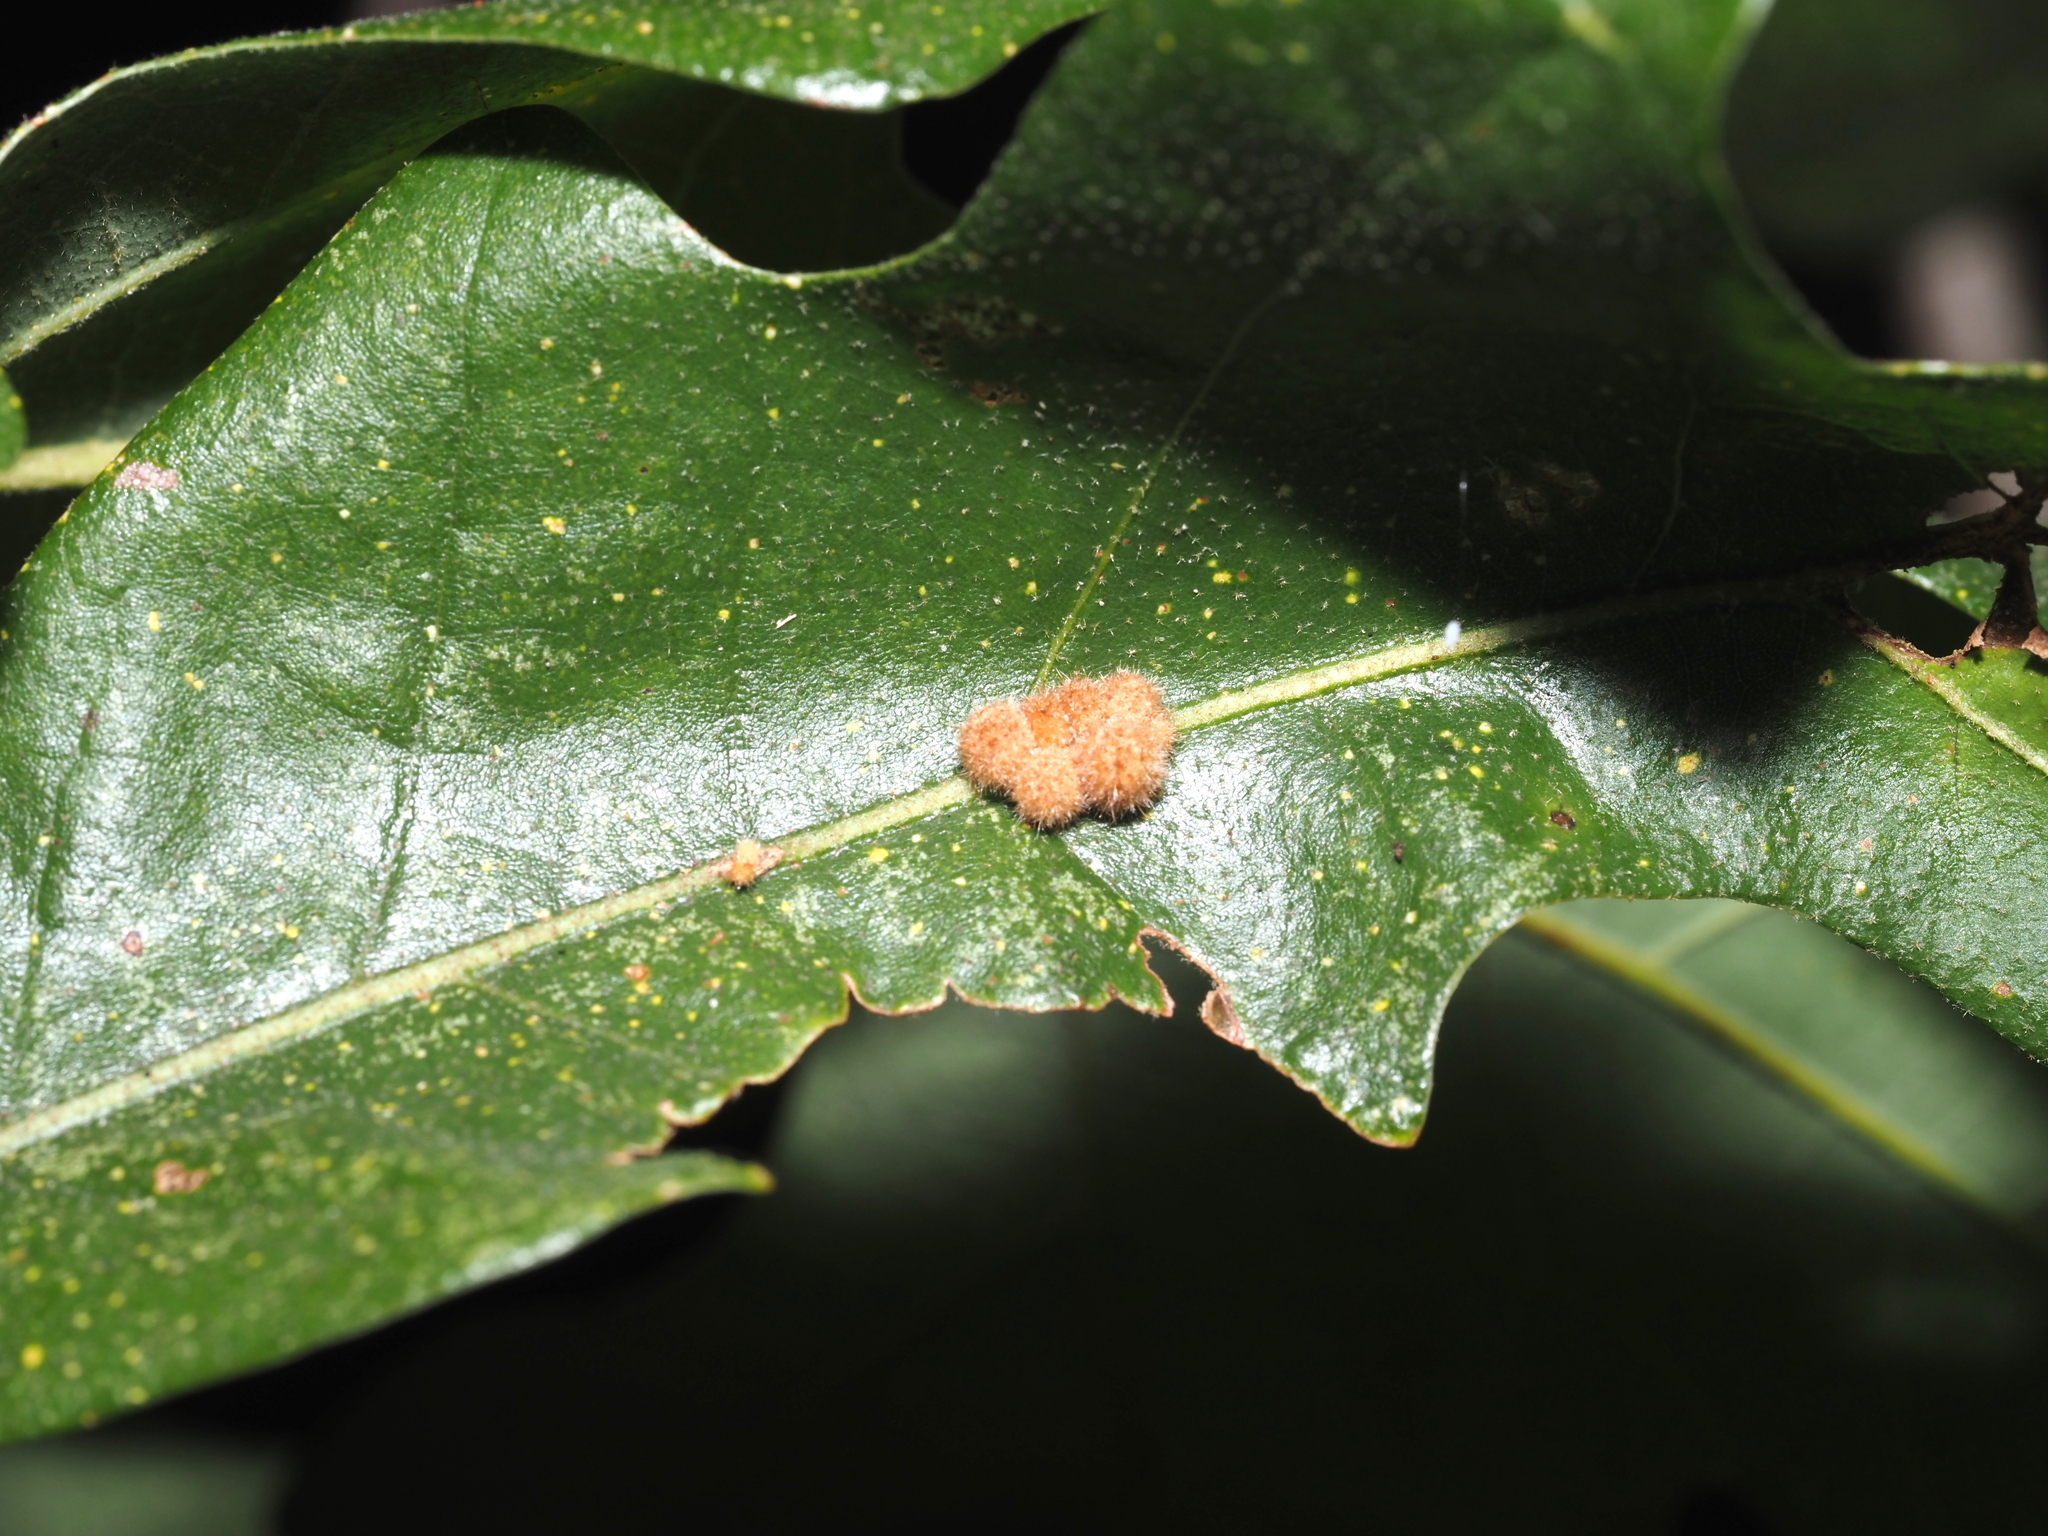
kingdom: Animalia
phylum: Arthropoda
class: Insecta
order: Hymenoptera
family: Cynipidae
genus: Biorhiza
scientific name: Biorhiza Sphaeroteras carolina
